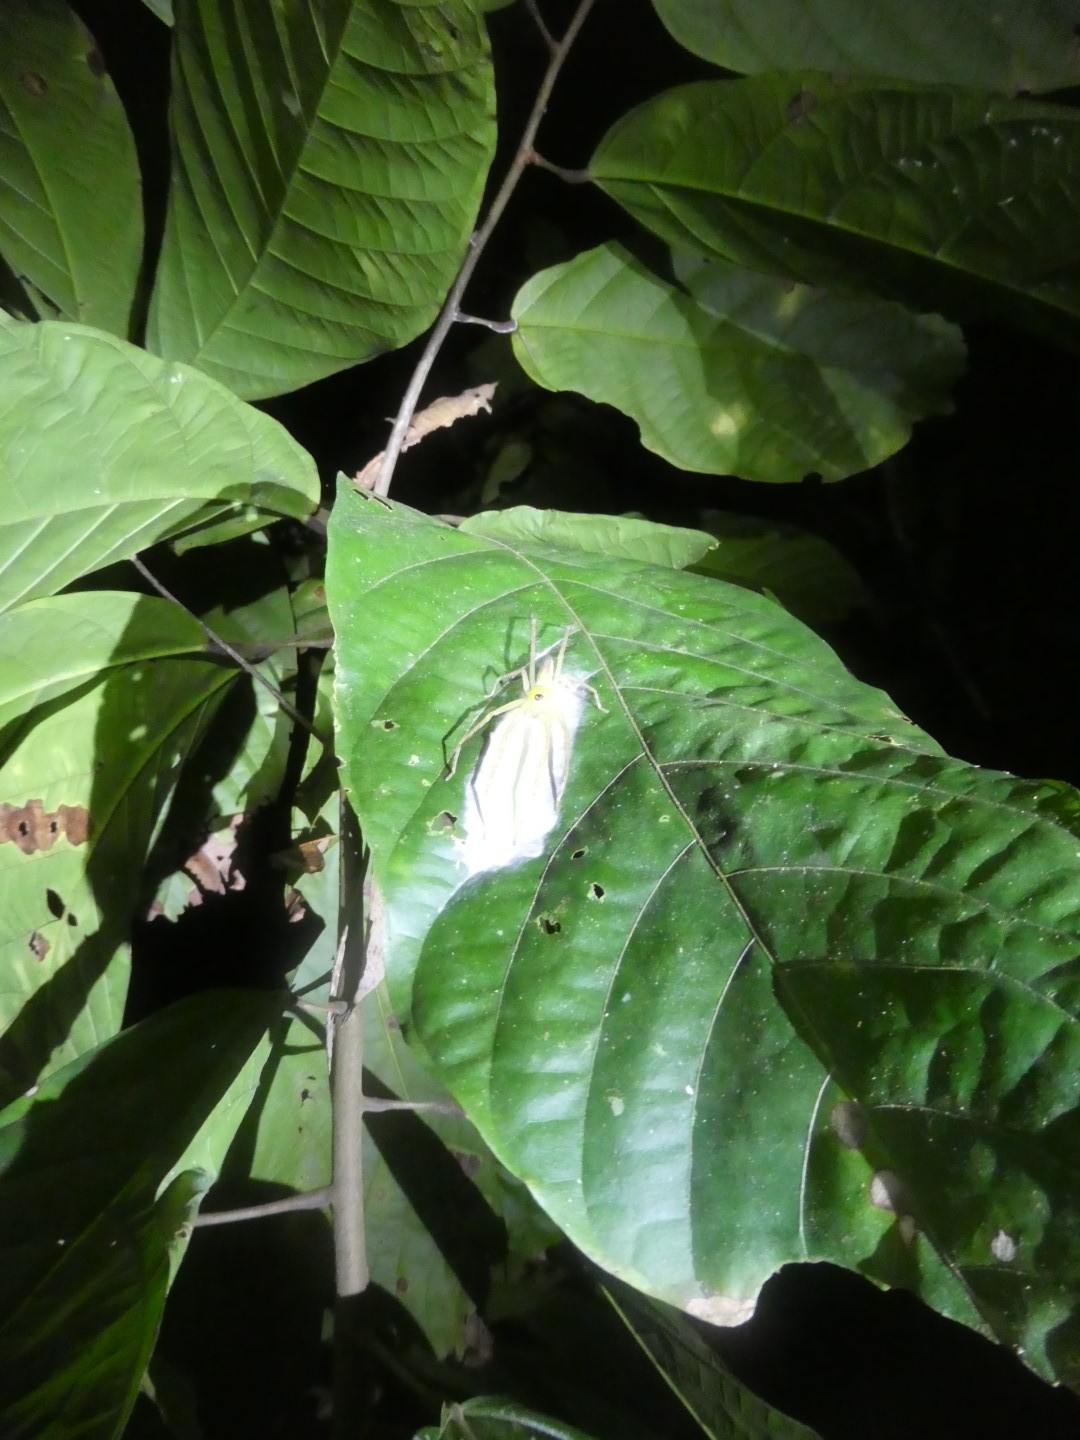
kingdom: Animalia
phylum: Arthropoda
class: Arachnida
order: Araneae
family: Sparassidae
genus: Clastes
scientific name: Clastes
